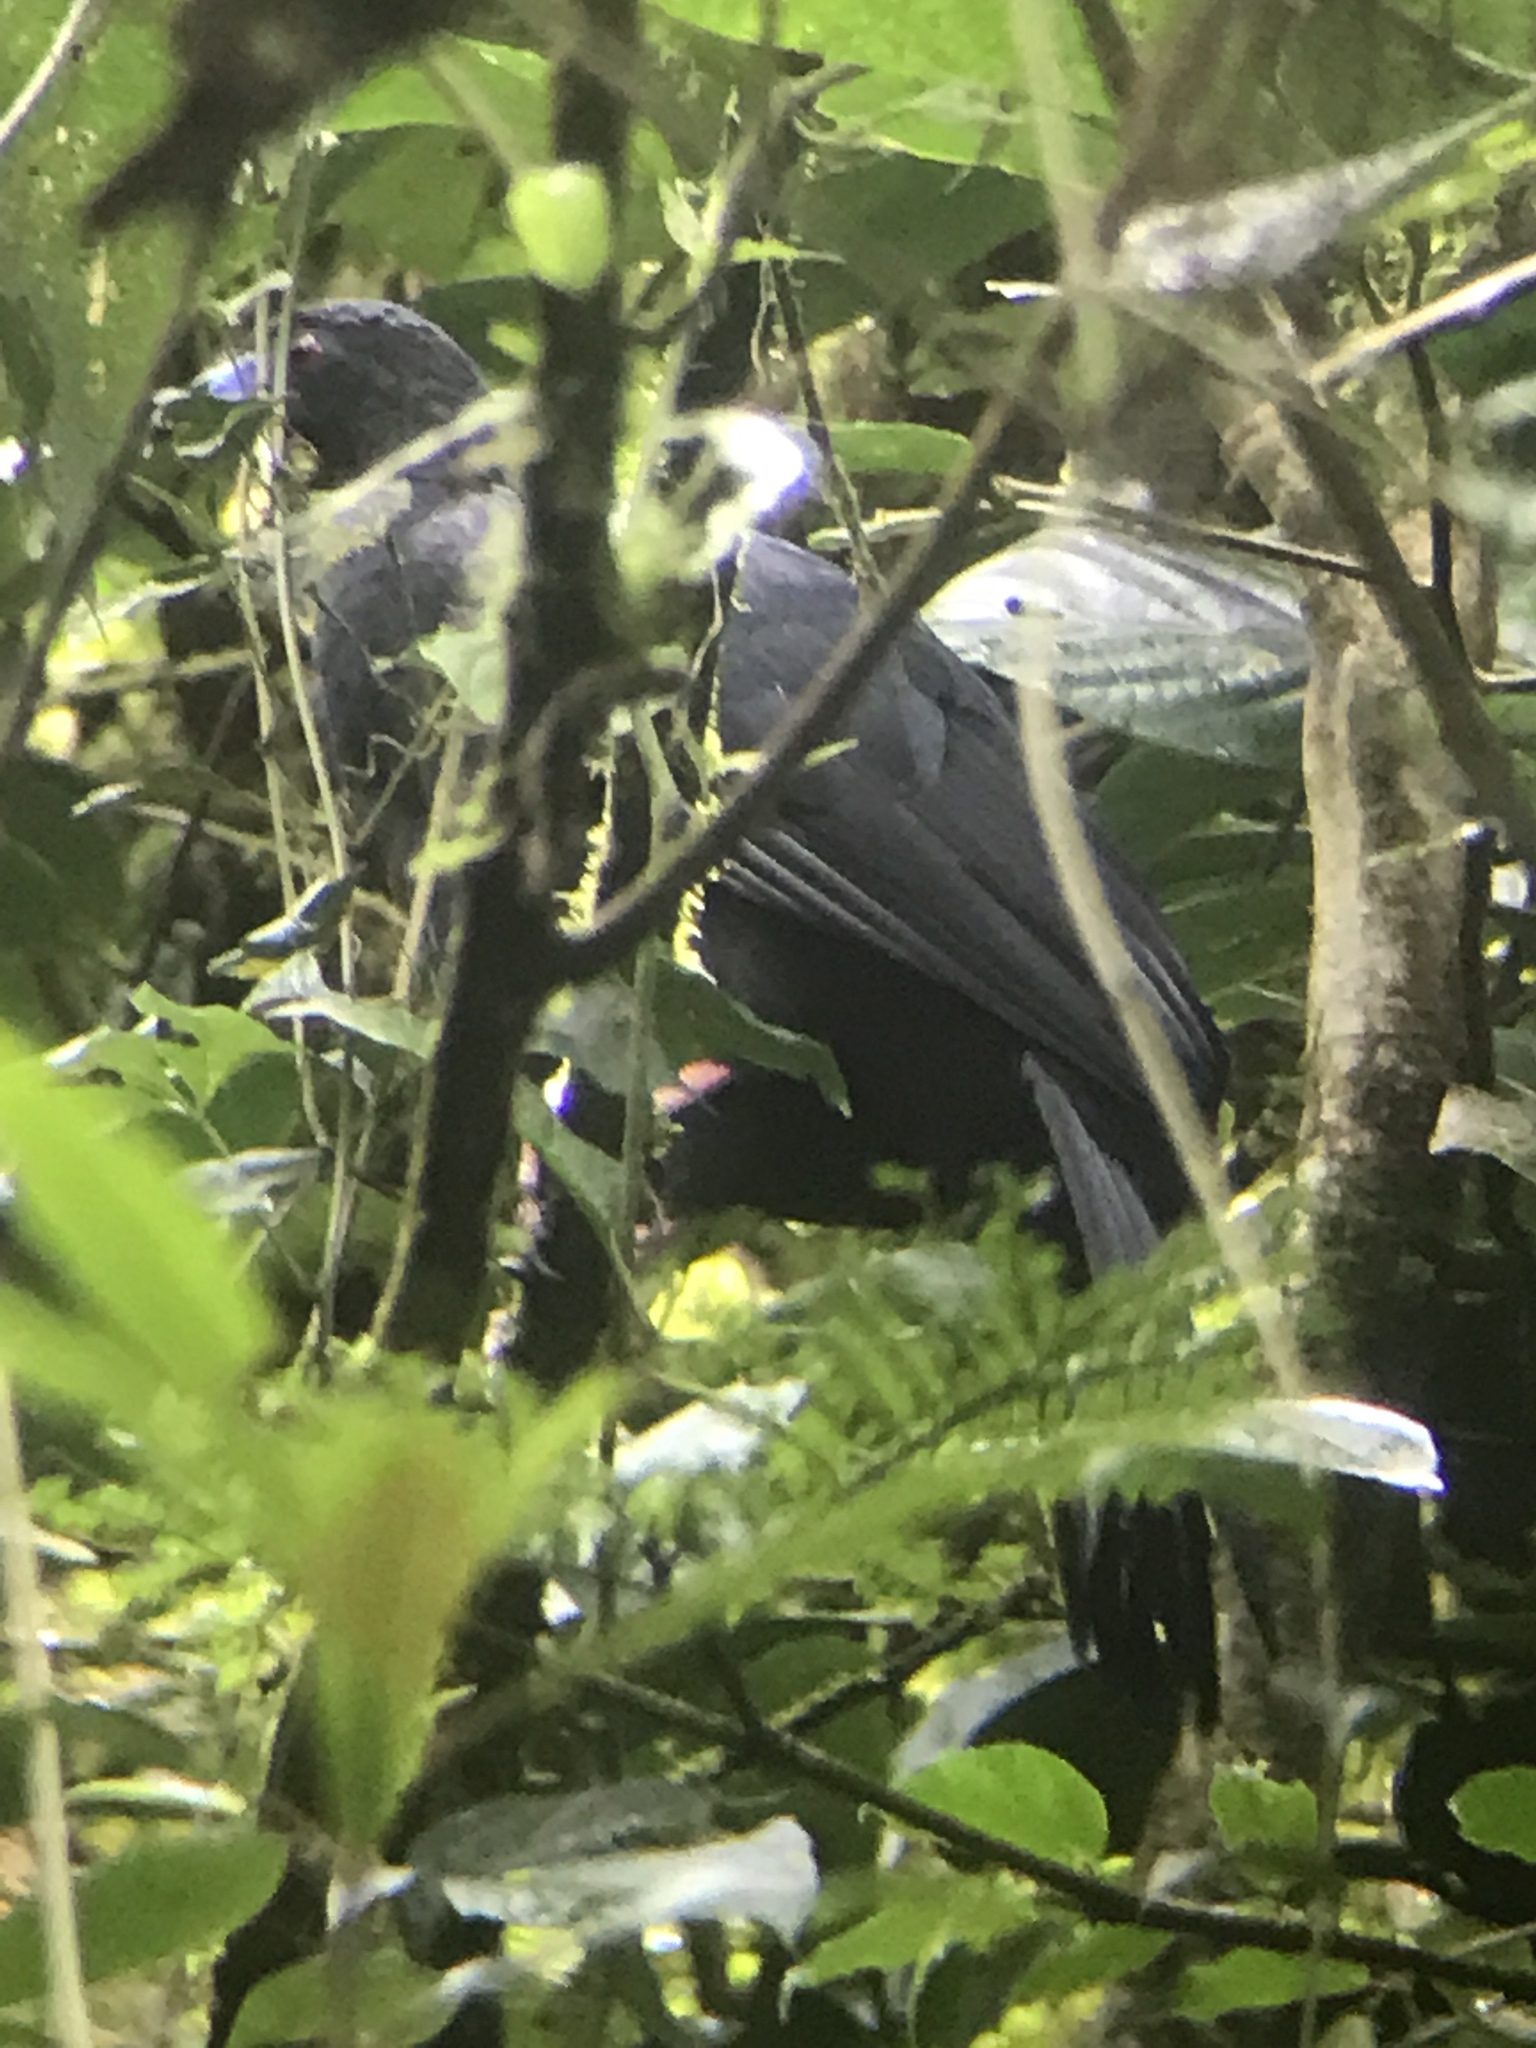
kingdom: Animalia
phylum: Chordata
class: Aves
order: Galliformes
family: Cracidae
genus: Chamaepetes
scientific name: Chamaepetes unicolor
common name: Black guan
